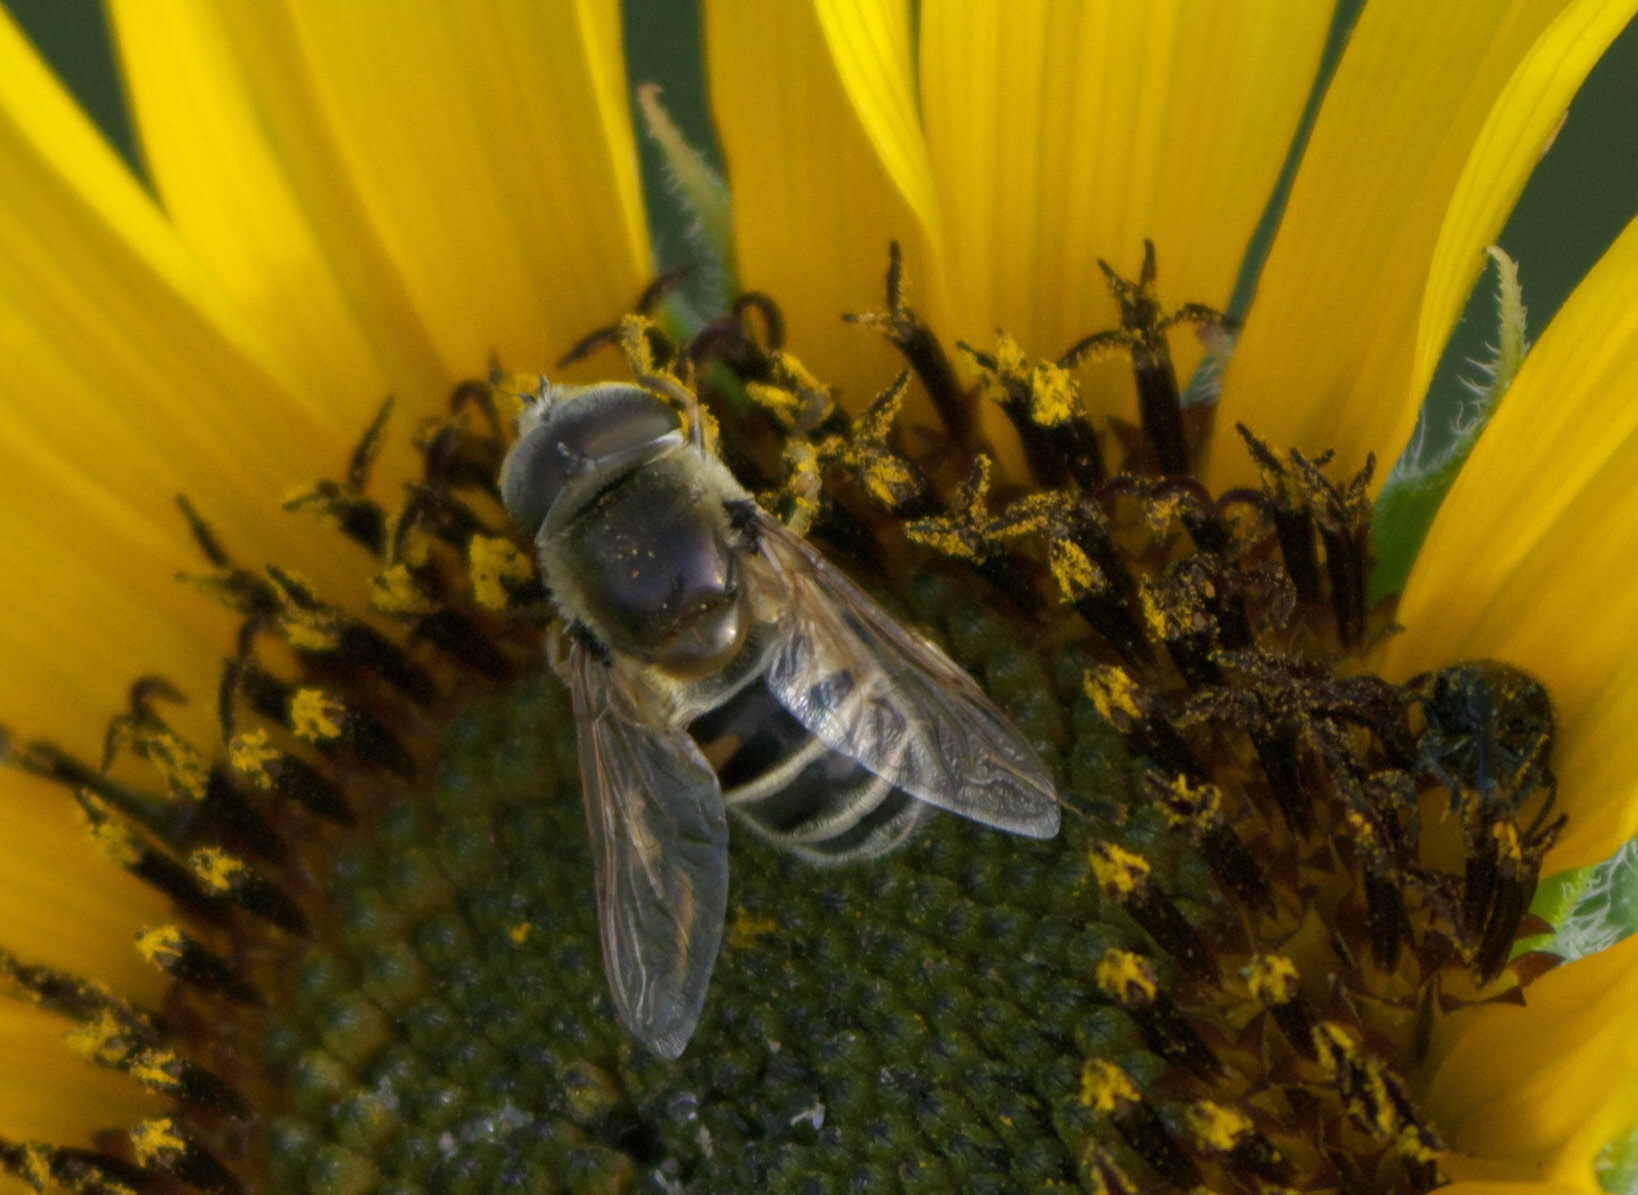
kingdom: Animalia
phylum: Arthropoda
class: Insecta
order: Diptera
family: Syrphidae
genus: Eristalis
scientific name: Eristalis stipator
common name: Yellow-shouldered drone fly
